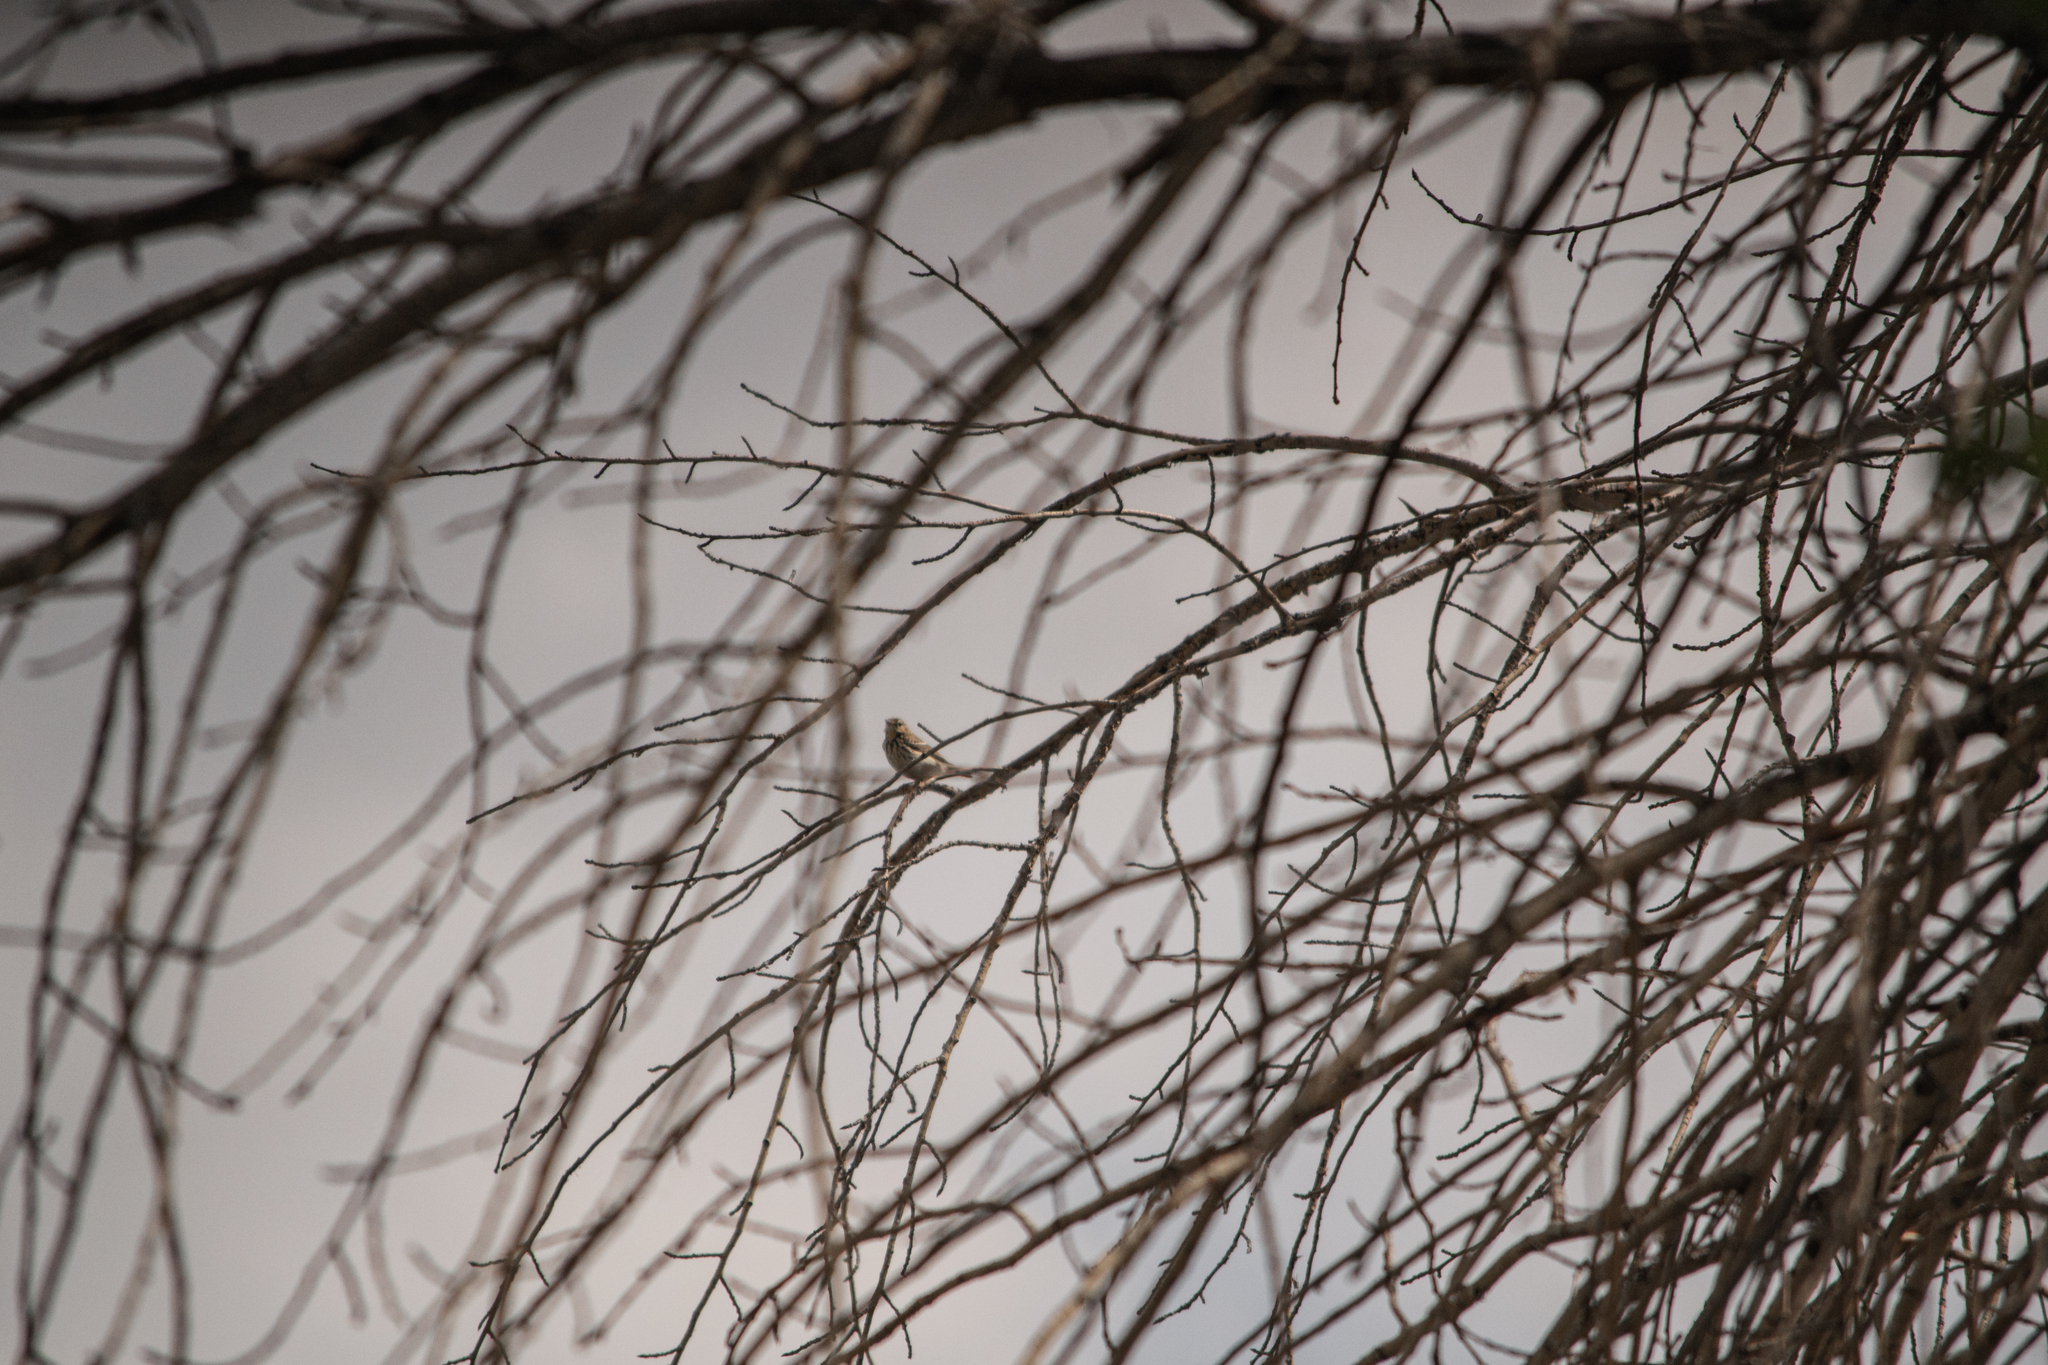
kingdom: Animalia
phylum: Chordata
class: Aves
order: Passeriformes
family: Motacillidae
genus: Anthus
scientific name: Anthus trivialis
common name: Tree pipit
